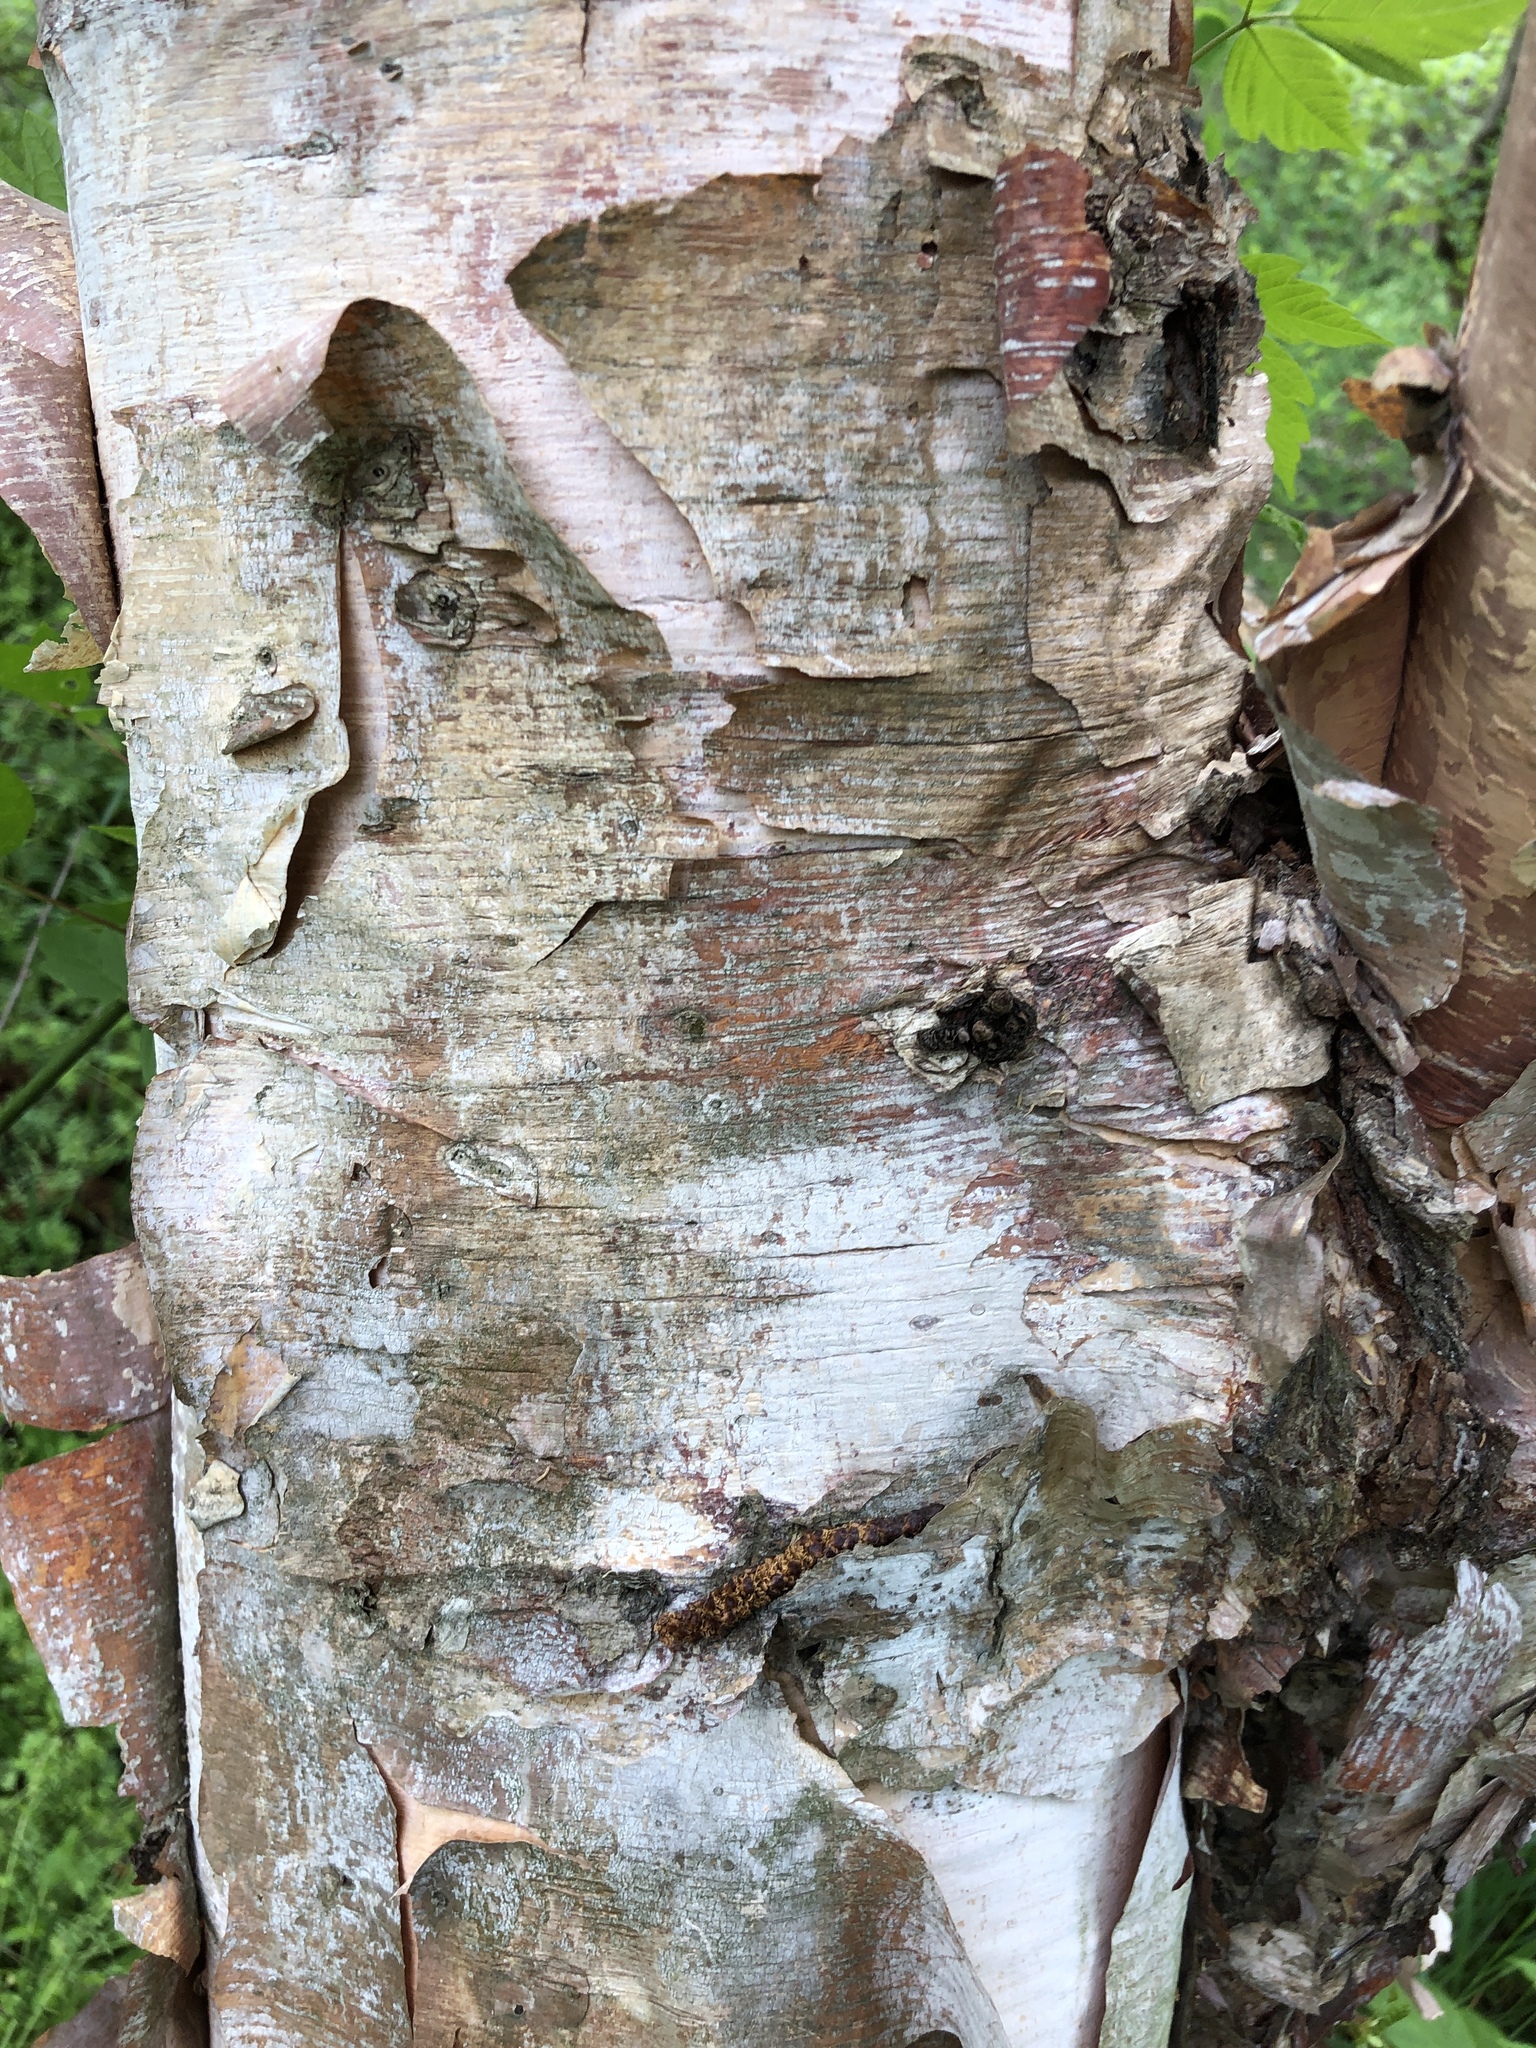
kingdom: Plantae
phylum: Tracheophyta
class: Magnoliopsida
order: Fagales
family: Betulaceae
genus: Betula
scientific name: Betula nigra
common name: Black birch
